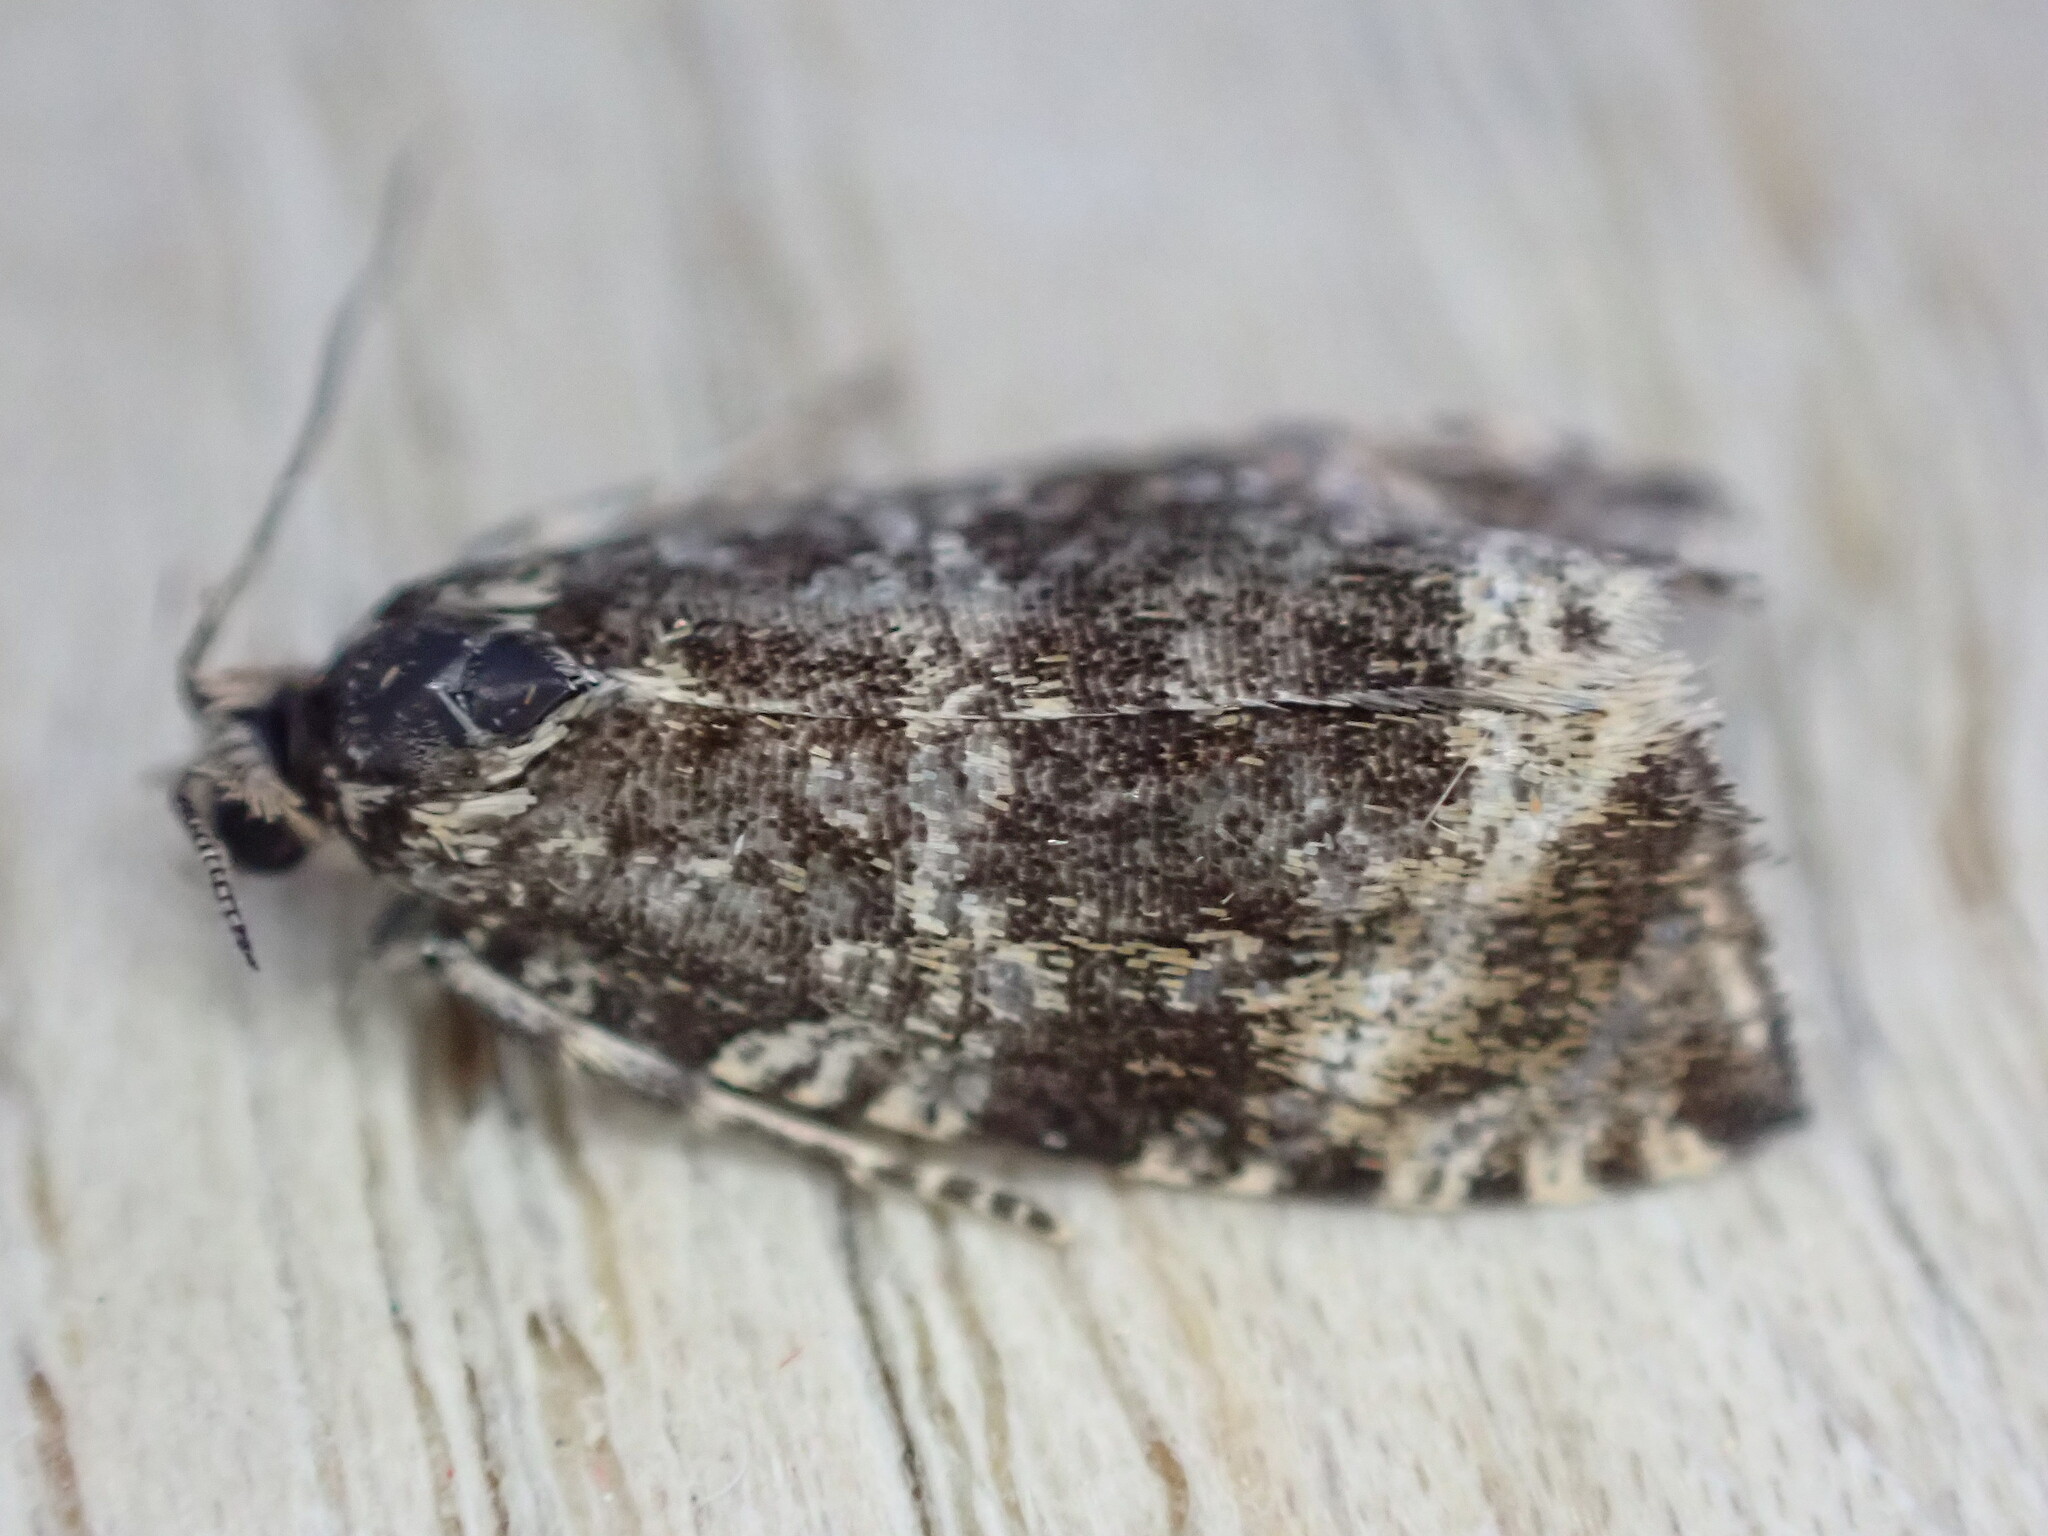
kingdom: Animalia
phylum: Arthropoda
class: Insecta
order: Lepidoptera
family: Tortricidae
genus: Syricoris
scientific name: Syricoris lacunana
